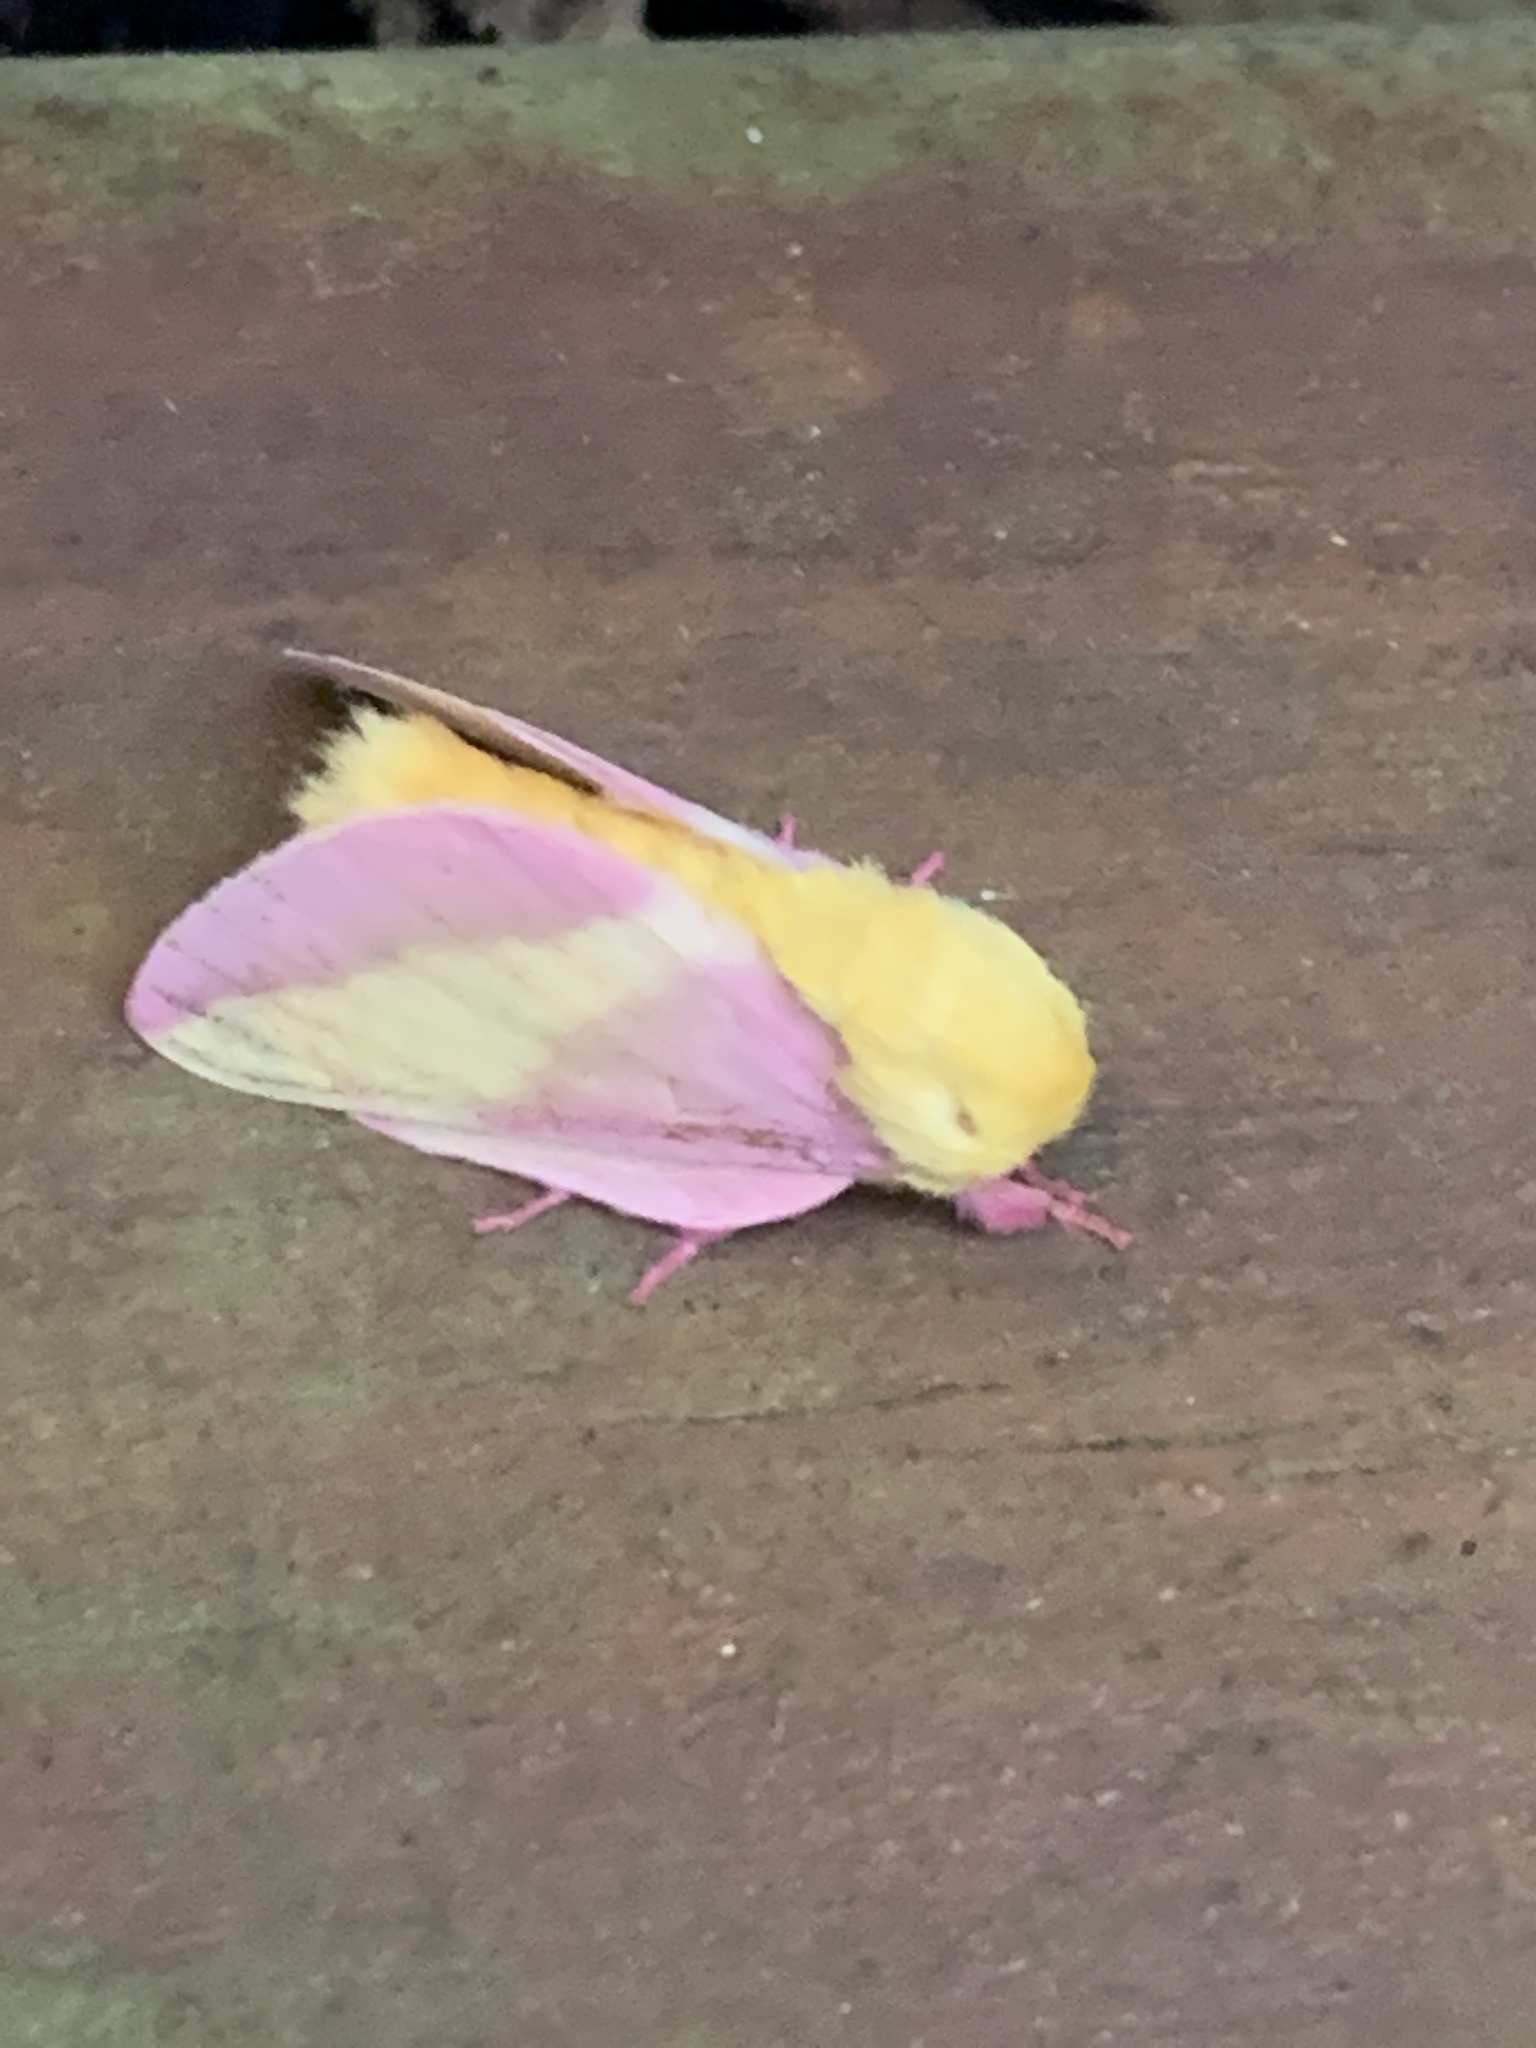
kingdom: Animalia
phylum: Arthropoda
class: Insecta
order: Lepidoptera
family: Saturniidae
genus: Dryocampa
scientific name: Dryocampa rubicunda
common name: Rosy maple moth
